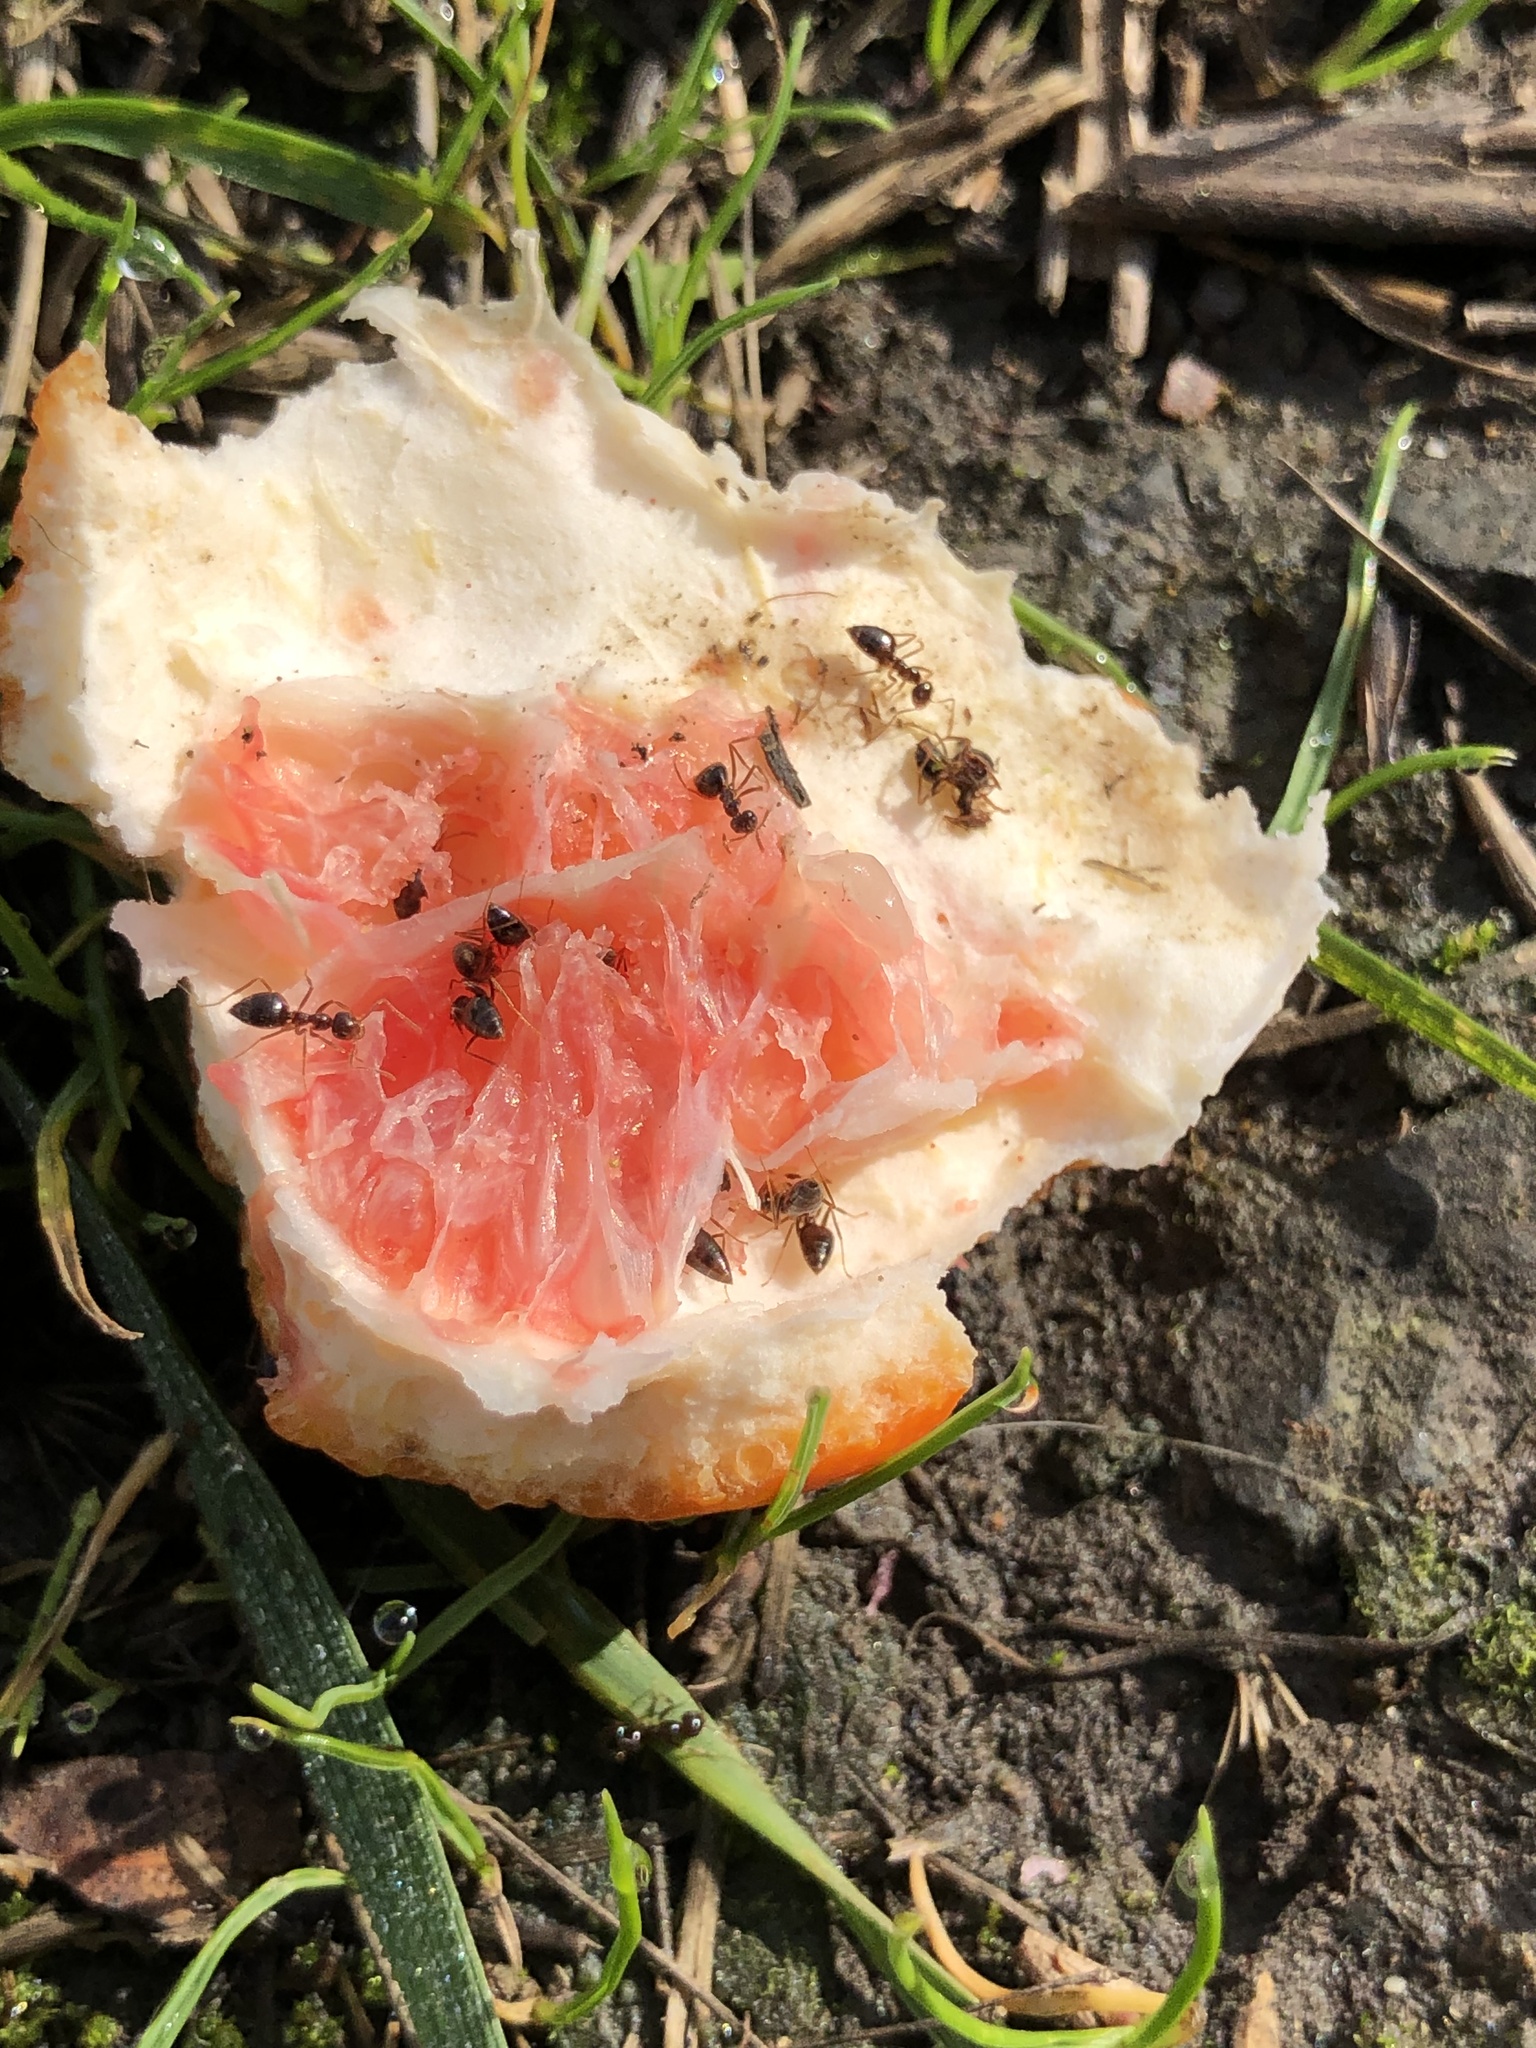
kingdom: Animalia
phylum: Arthropoda
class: Insecta
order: Hymenoptera
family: Formicidae
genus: Prenolepis
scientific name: Prenolepis imparis
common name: Small honey ant
